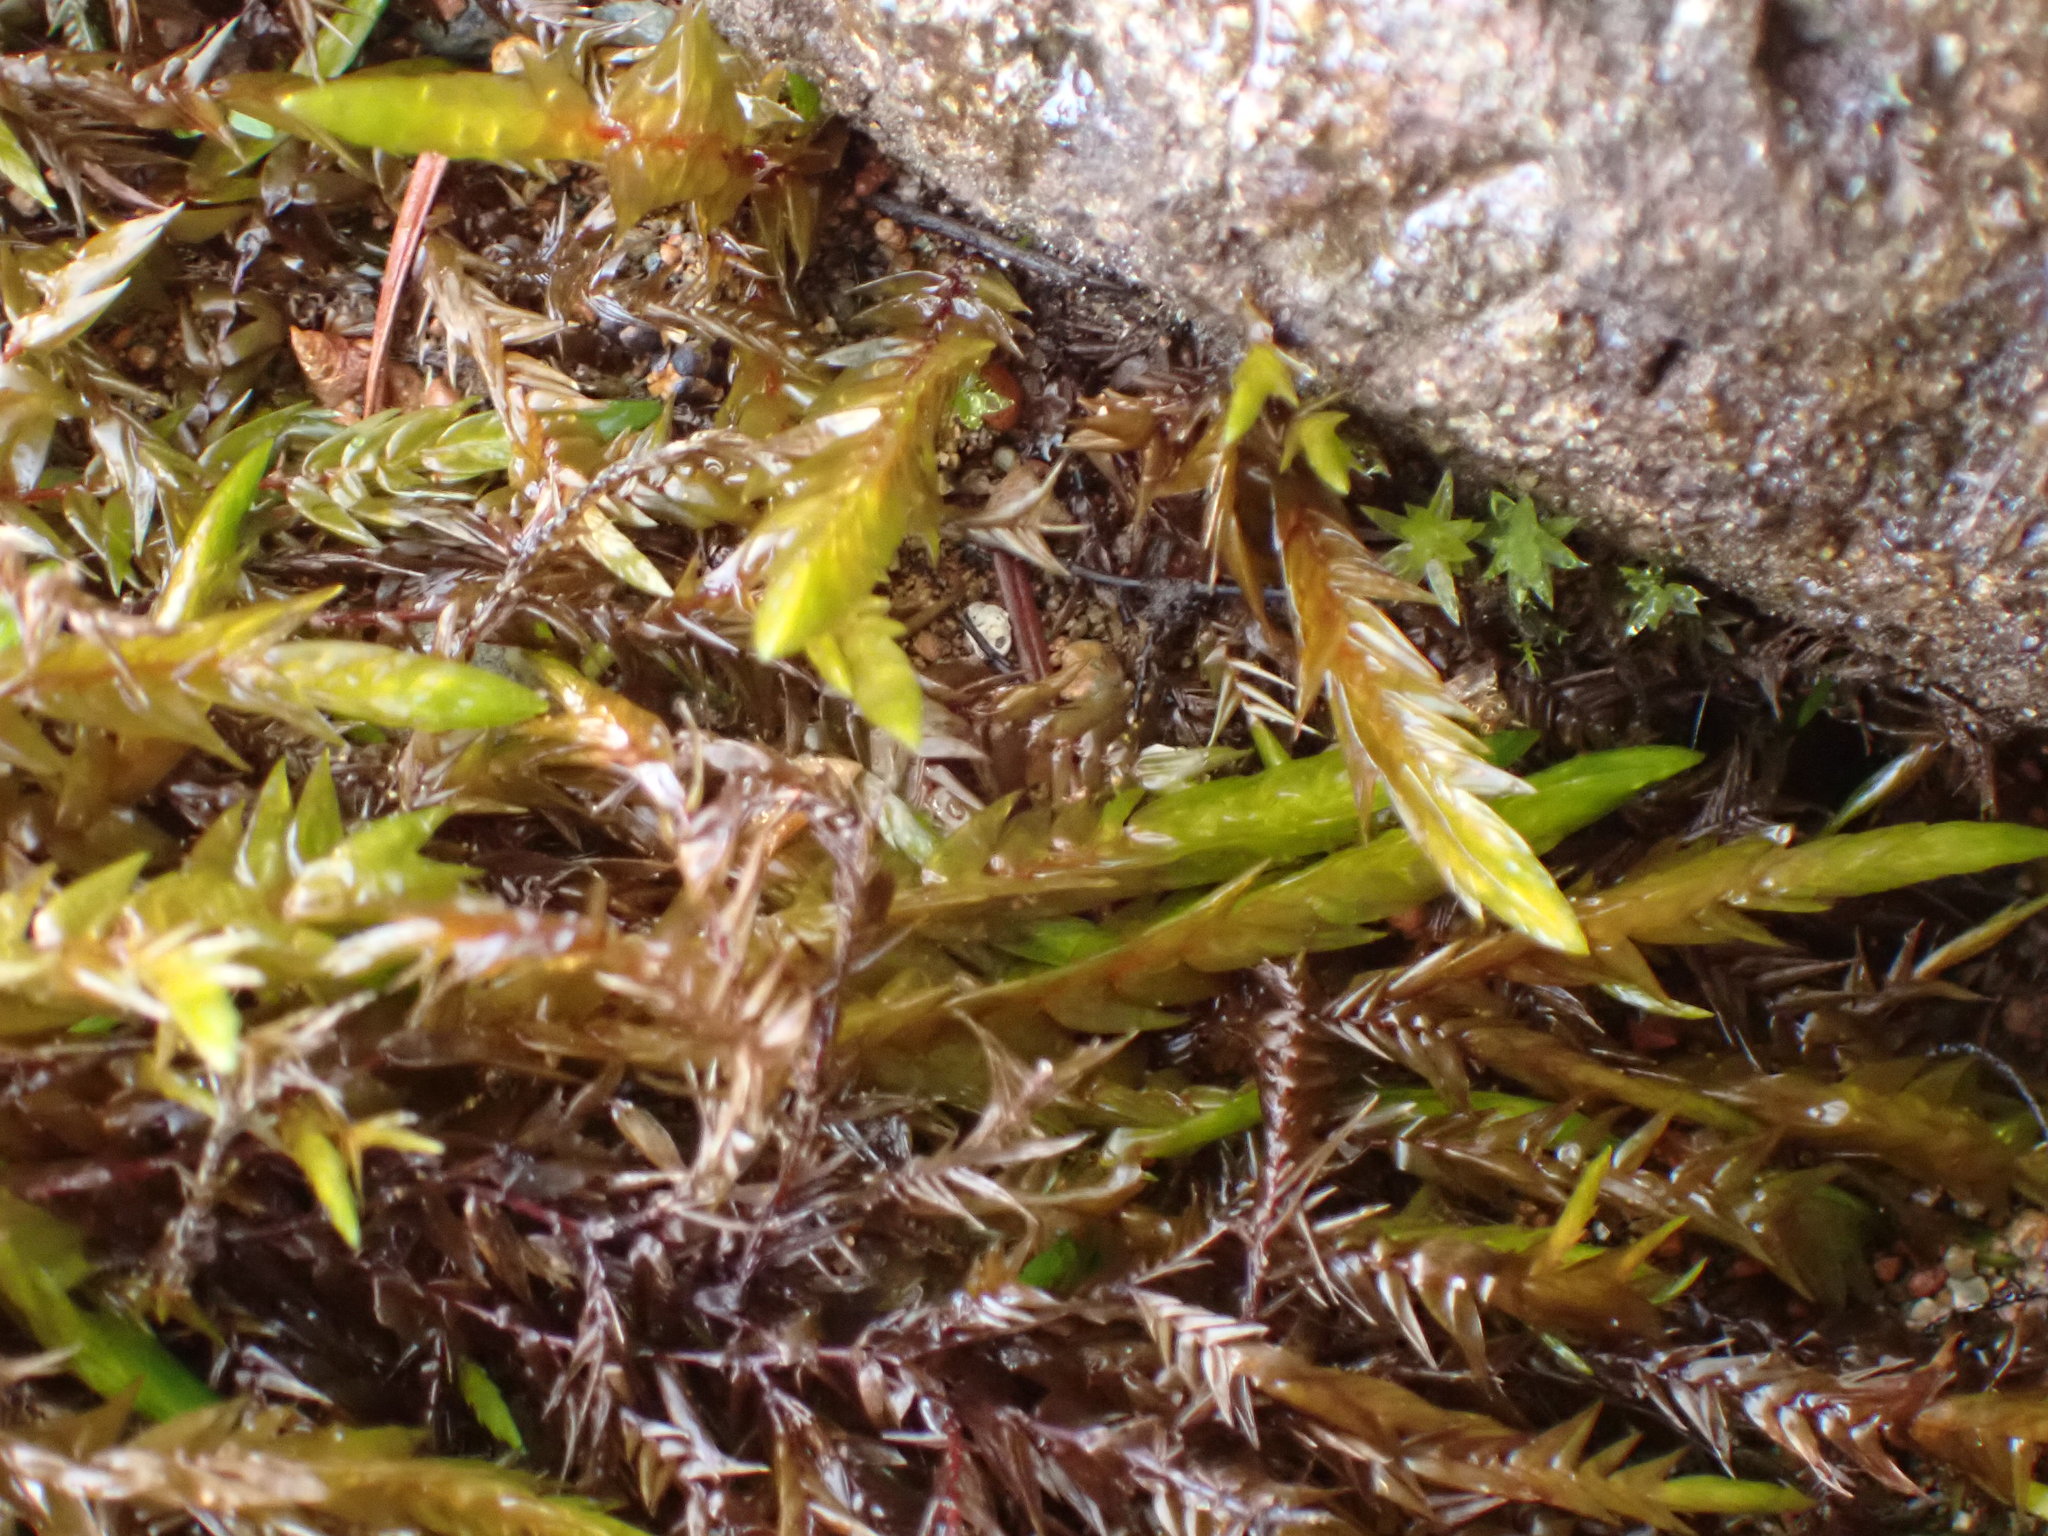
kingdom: Plantae
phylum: Bryophyta
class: Bryopsida
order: Hypnales
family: Fontinalaceae
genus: Fontinalis
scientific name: Fontinalis neomexicana
